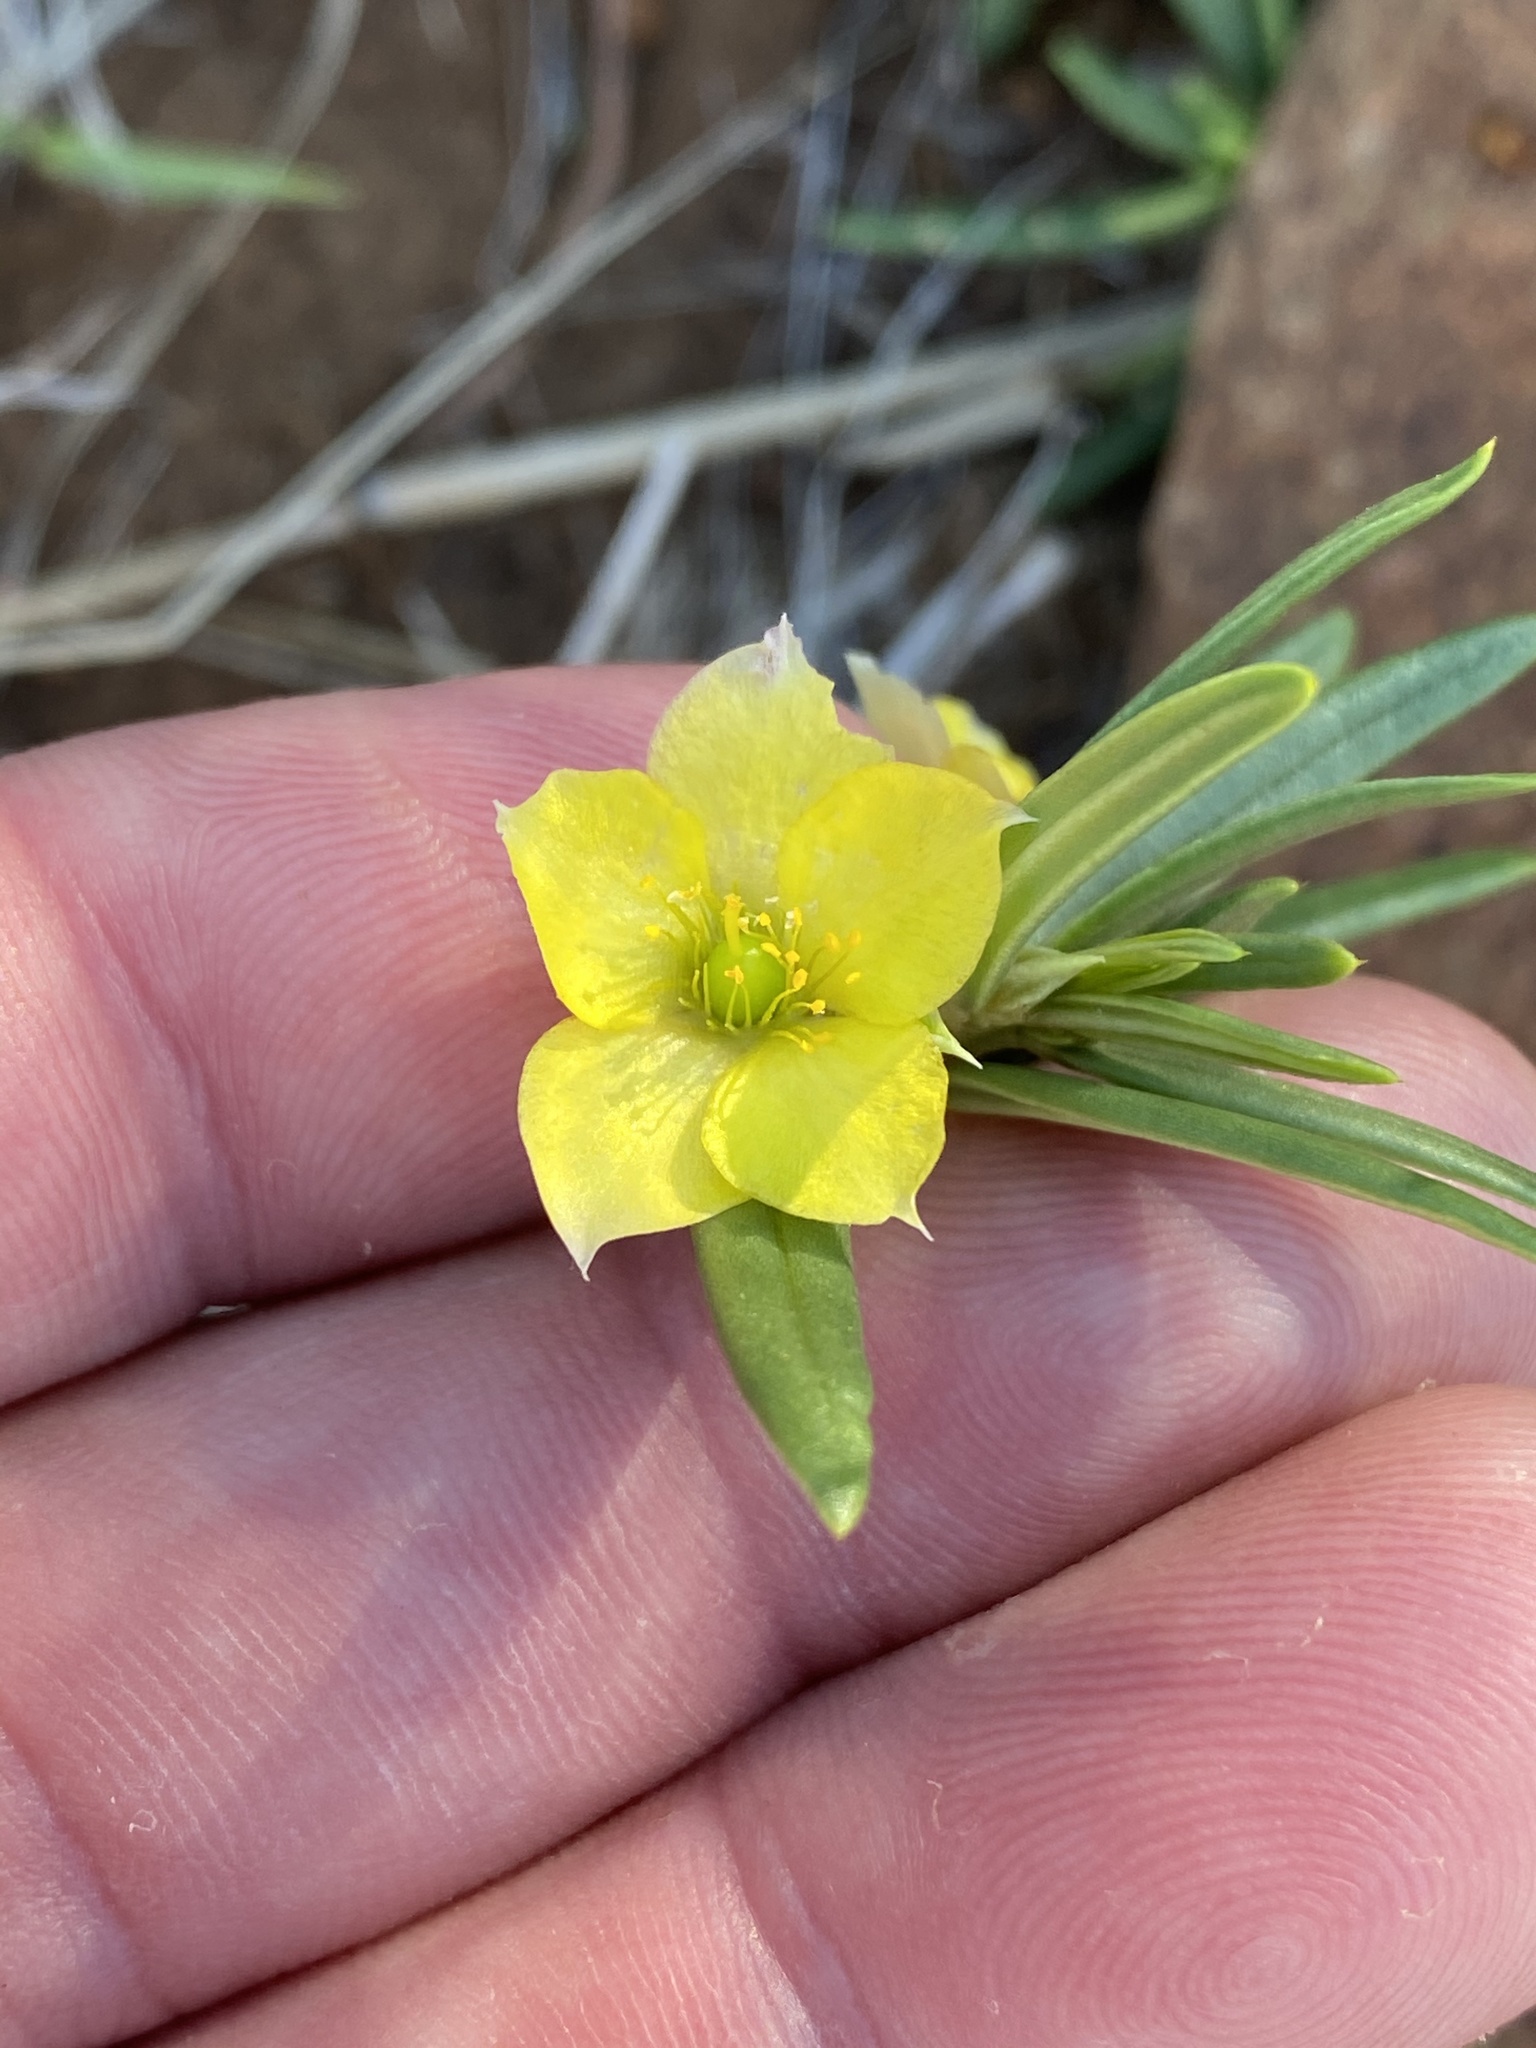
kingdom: Plantae
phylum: Tracheophyta
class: Magnoliopsida
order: Caryophyllales
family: Talinaceae
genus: Talinum
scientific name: Talinum caffrum
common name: Flameflower
